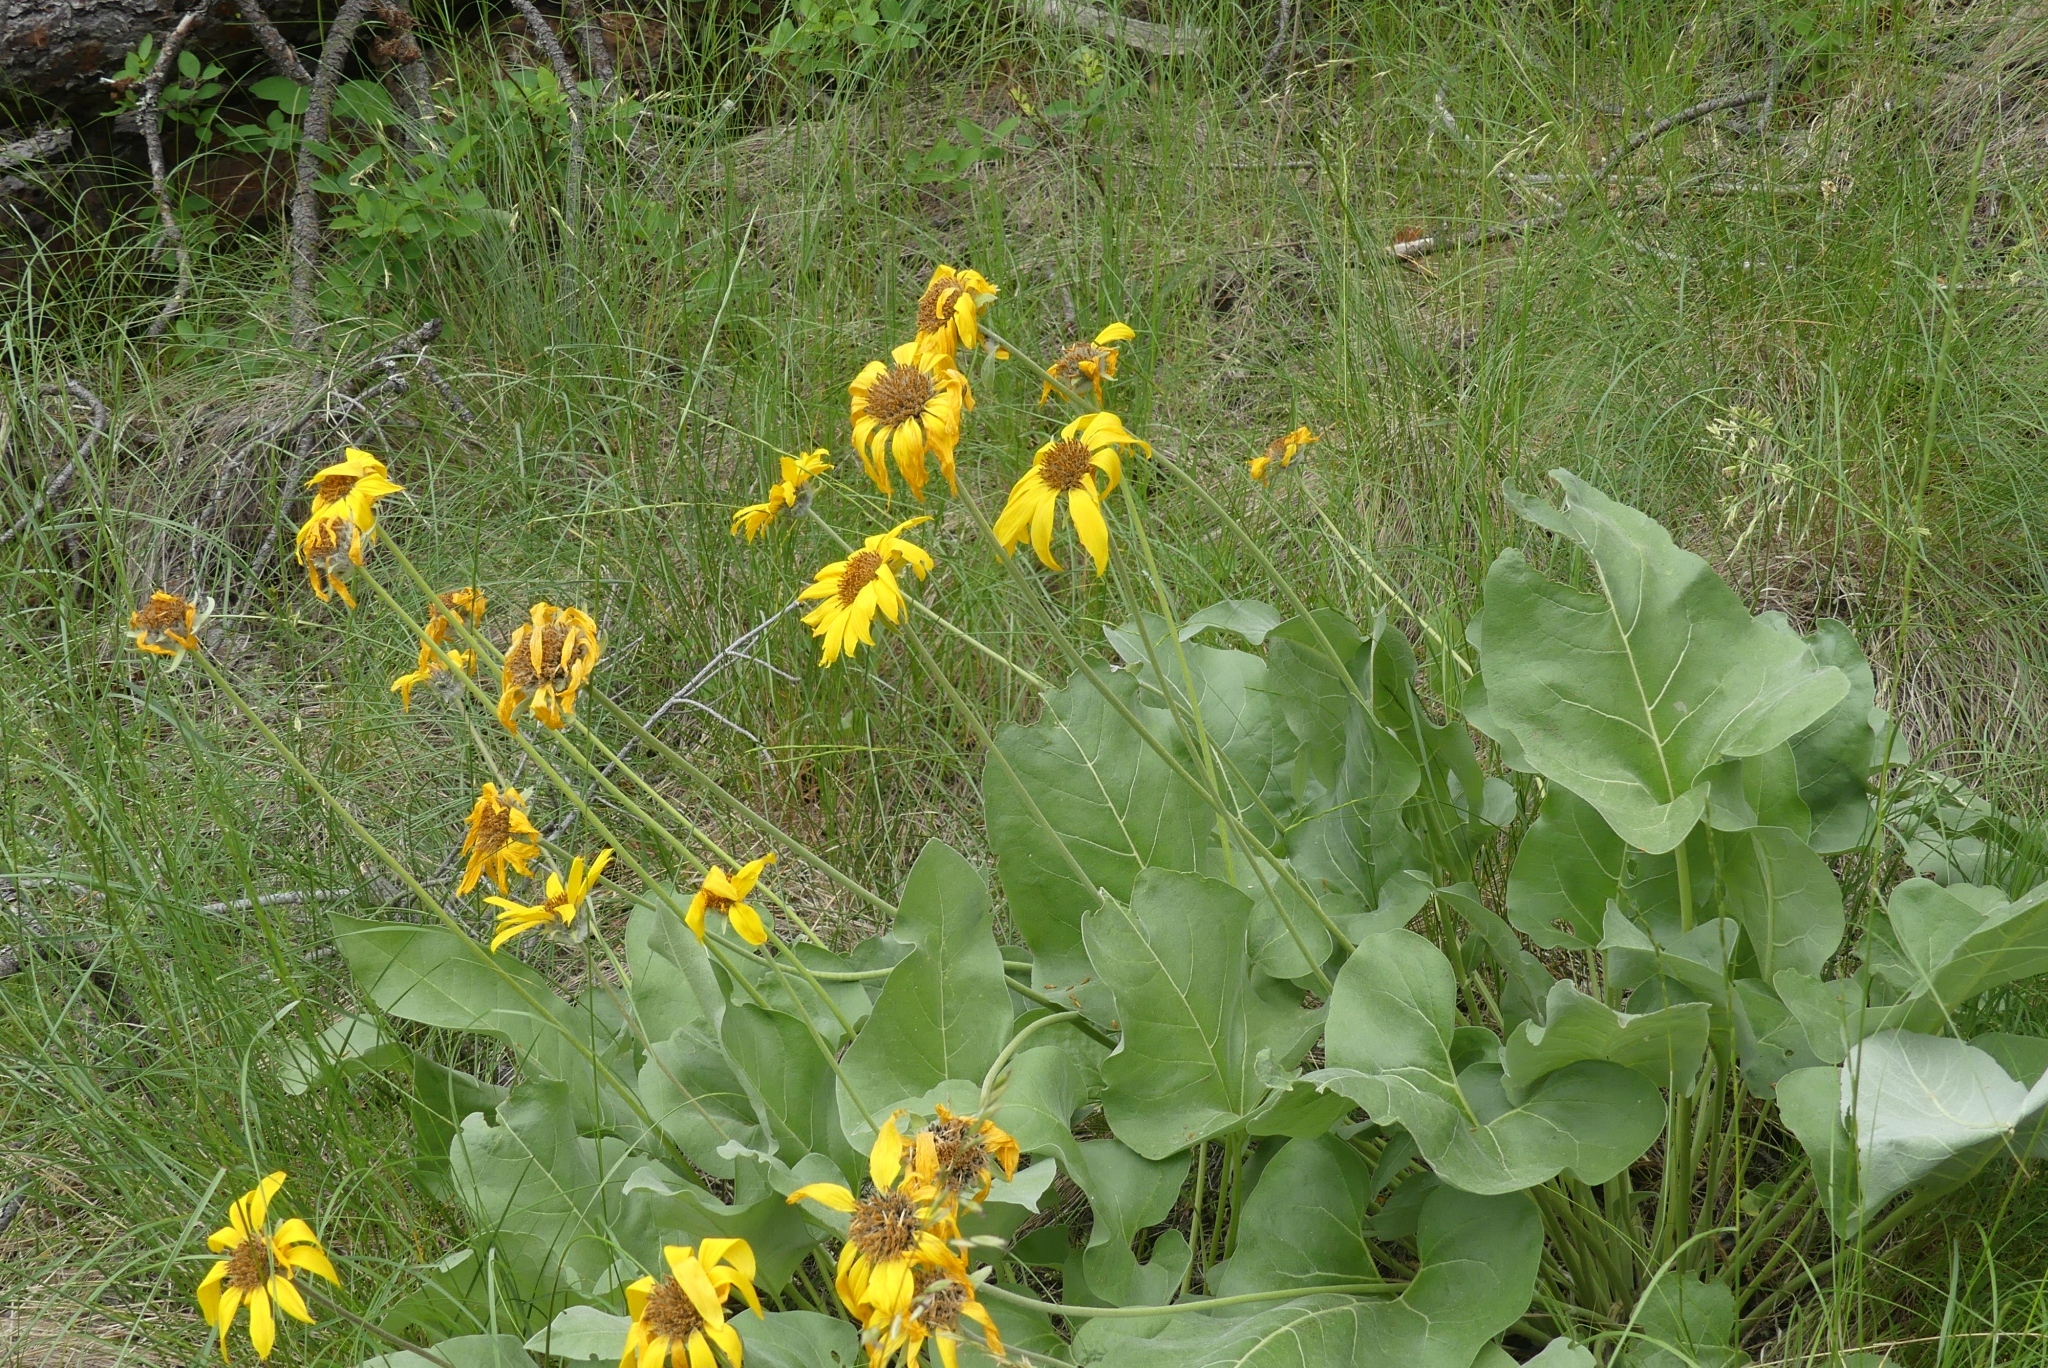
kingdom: Plantae
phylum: Tracheophyta
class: Magnoliopsida
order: Asterales
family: Asteraceae
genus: Wyethia
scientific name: Wyethia sagittata
